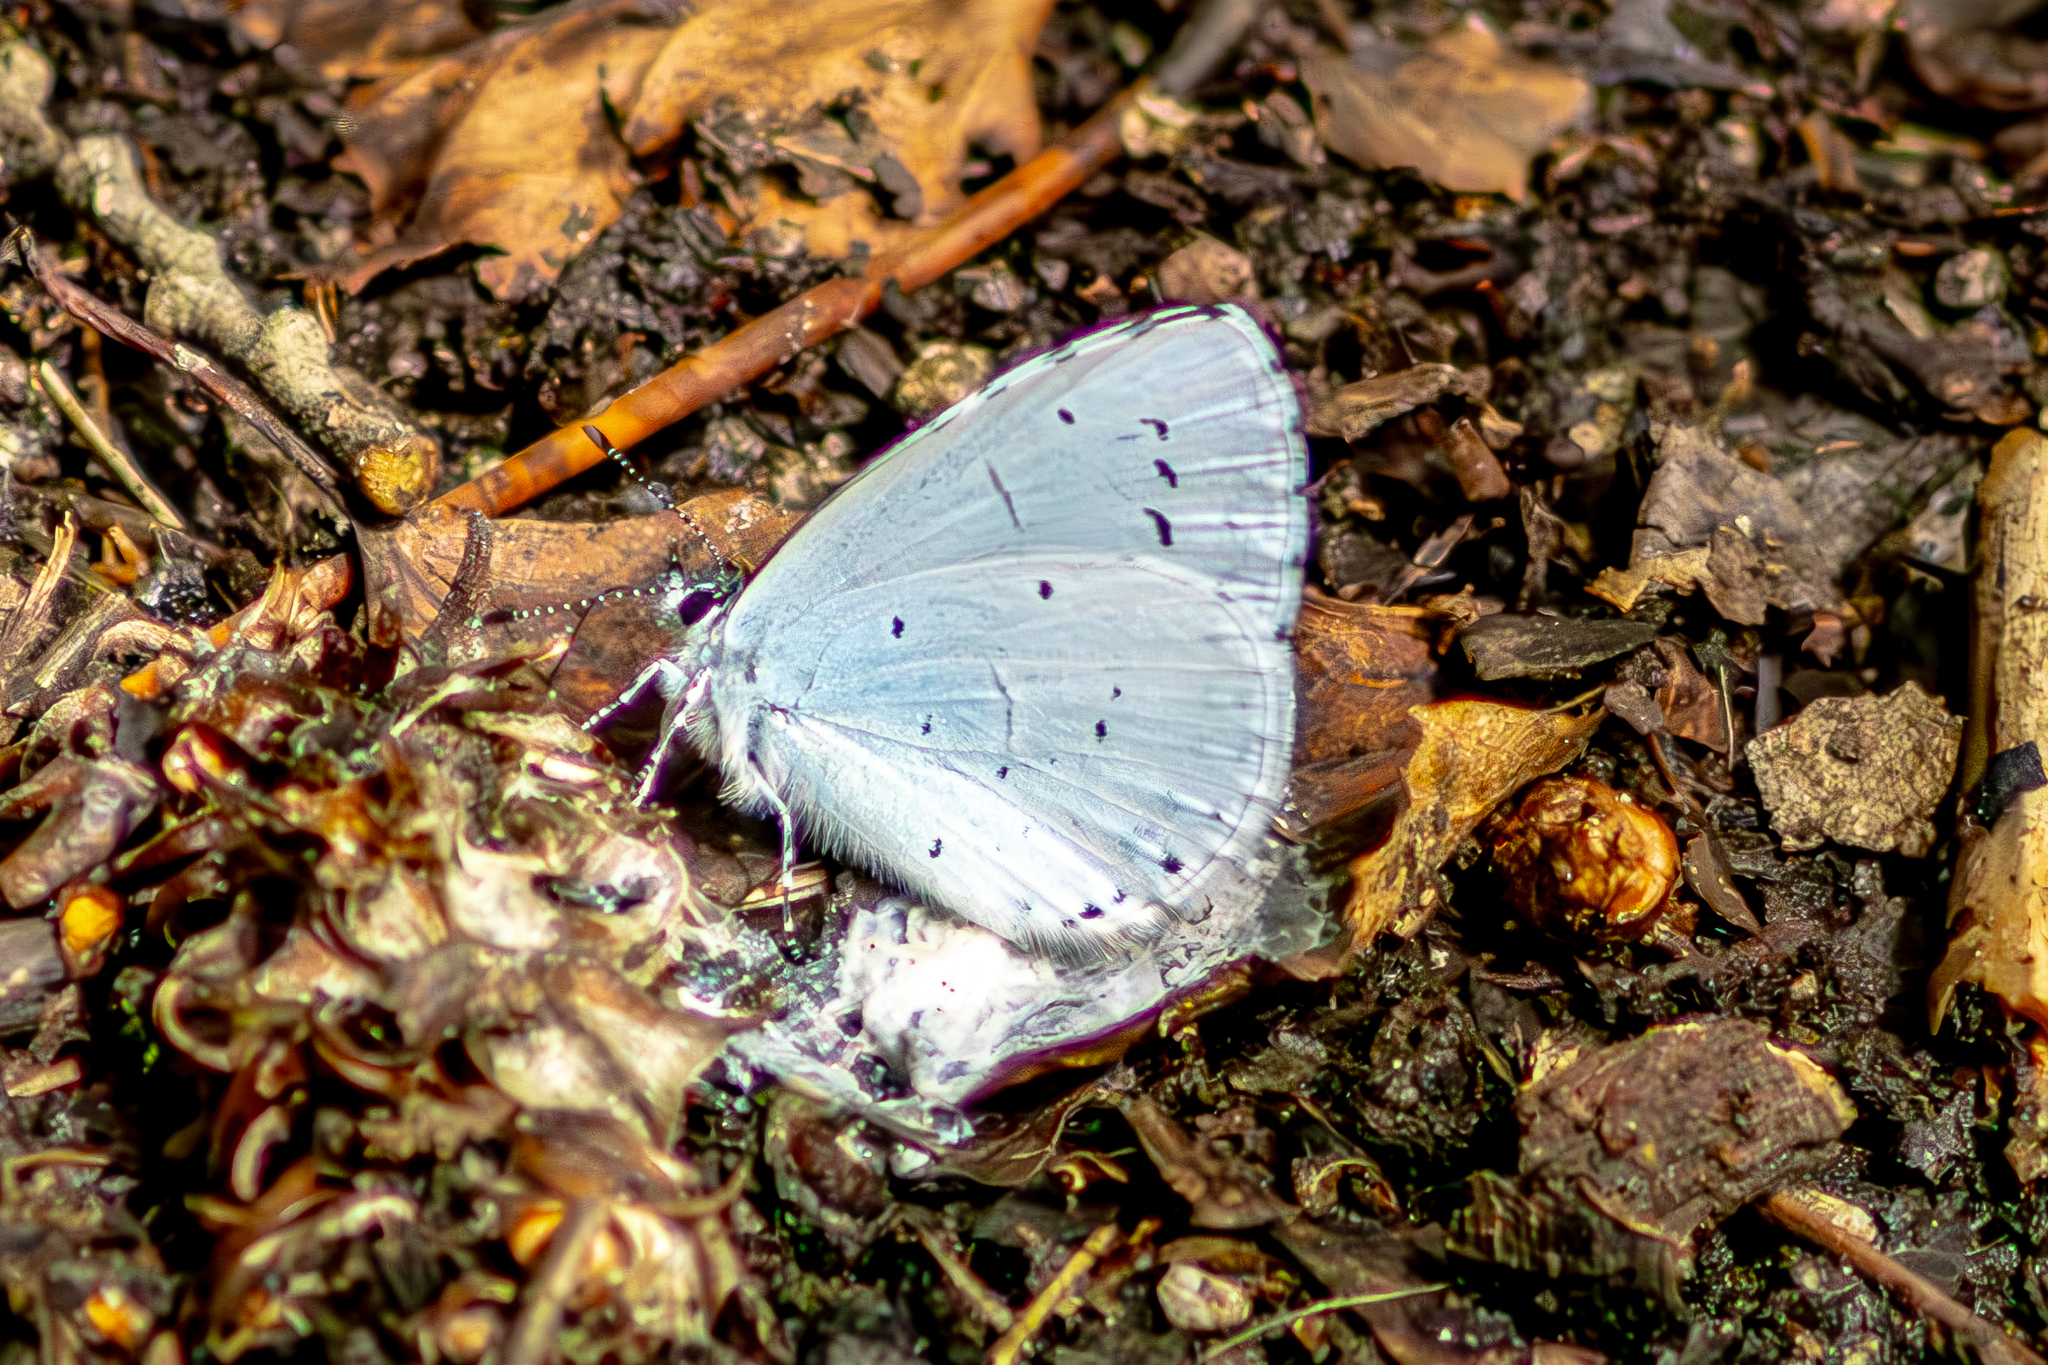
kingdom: Animalia
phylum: Arthropoda
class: Insecta
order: Lepidoptera
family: Lycaenidae
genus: Celastrina
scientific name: Celastrina argiolus
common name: Holly blue
